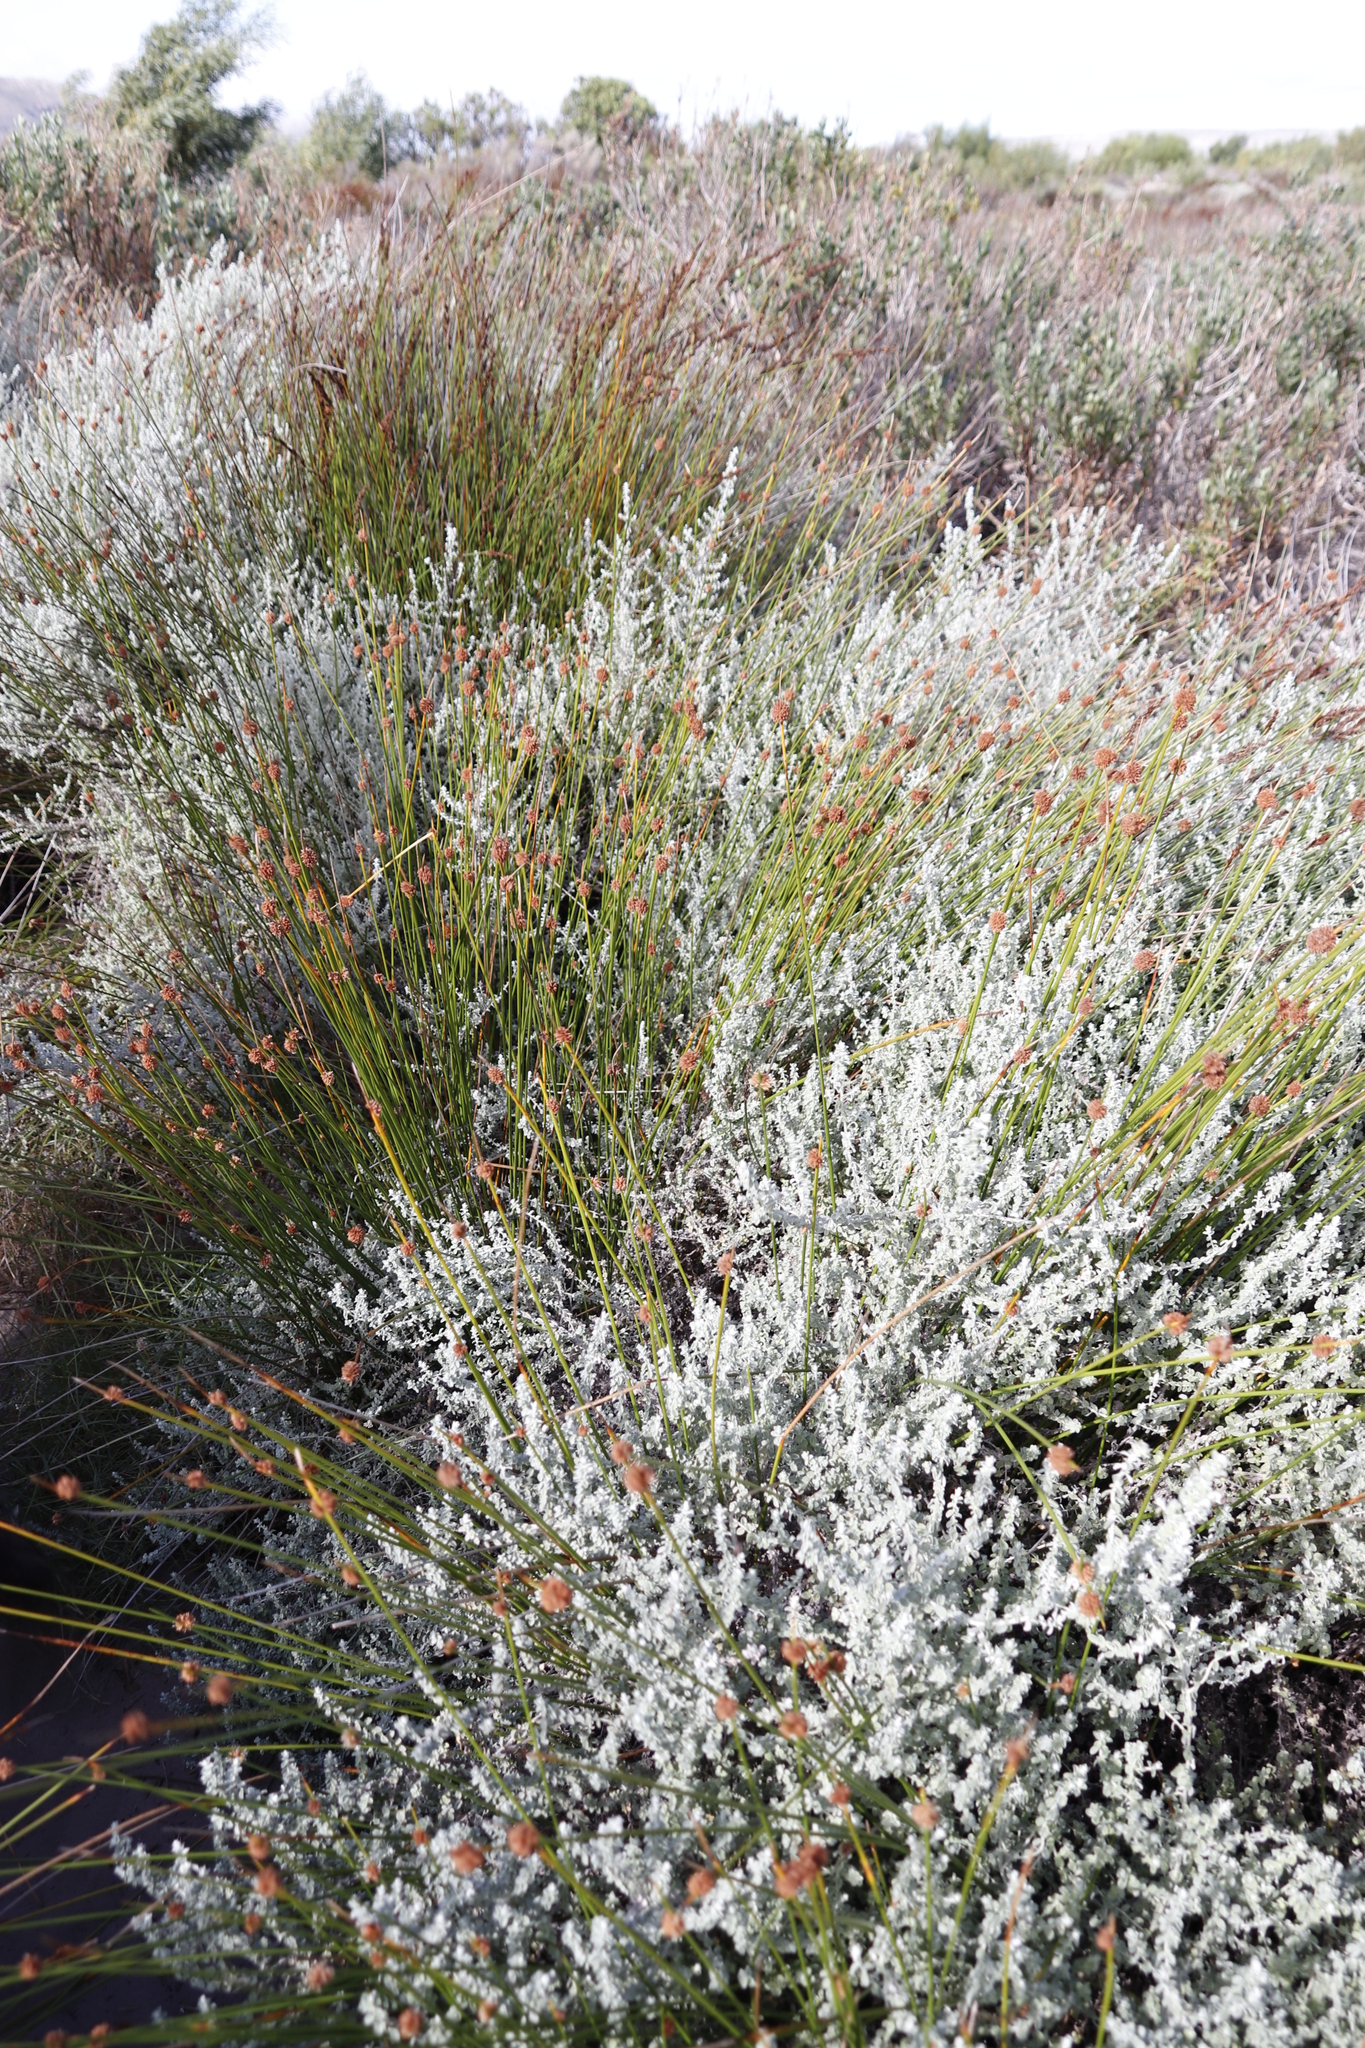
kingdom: Plantae
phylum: Tracheophyta
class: Liliopsida
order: Poales
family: Cyperaceae
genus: Ficinia
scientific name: Ficinia nodosa
